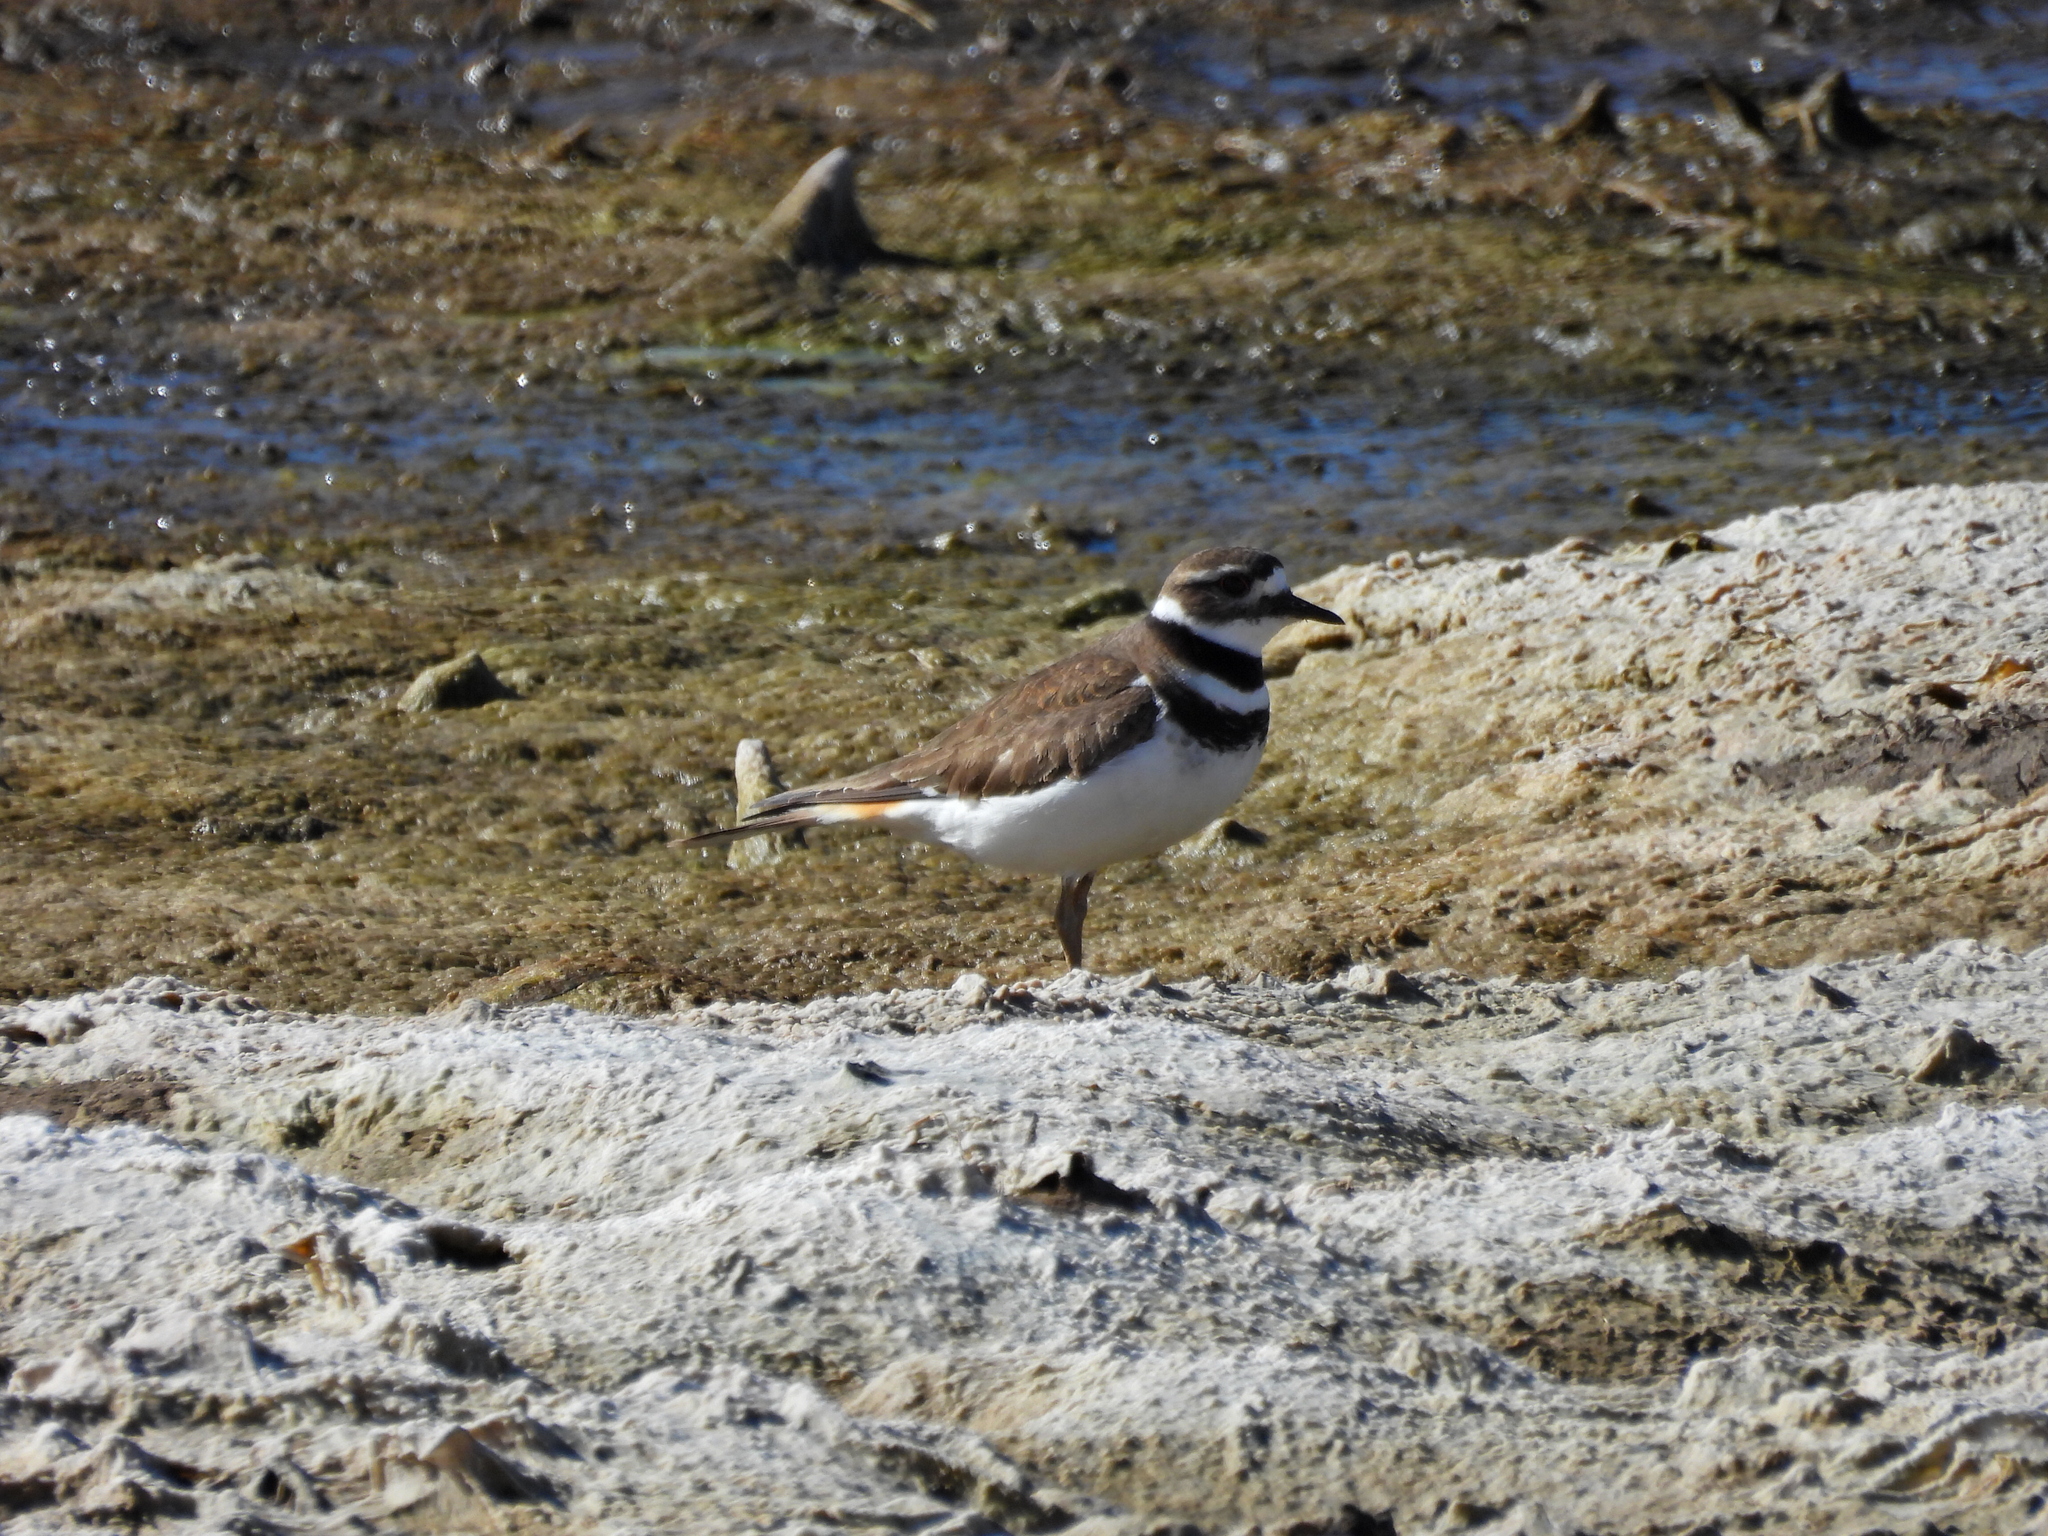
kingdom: Animalia
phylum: Chordata
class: Aves
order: Charadriiformes
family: Charadriidae
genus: Charadrius
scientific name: Charadrius vociferus
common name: Killdeer
